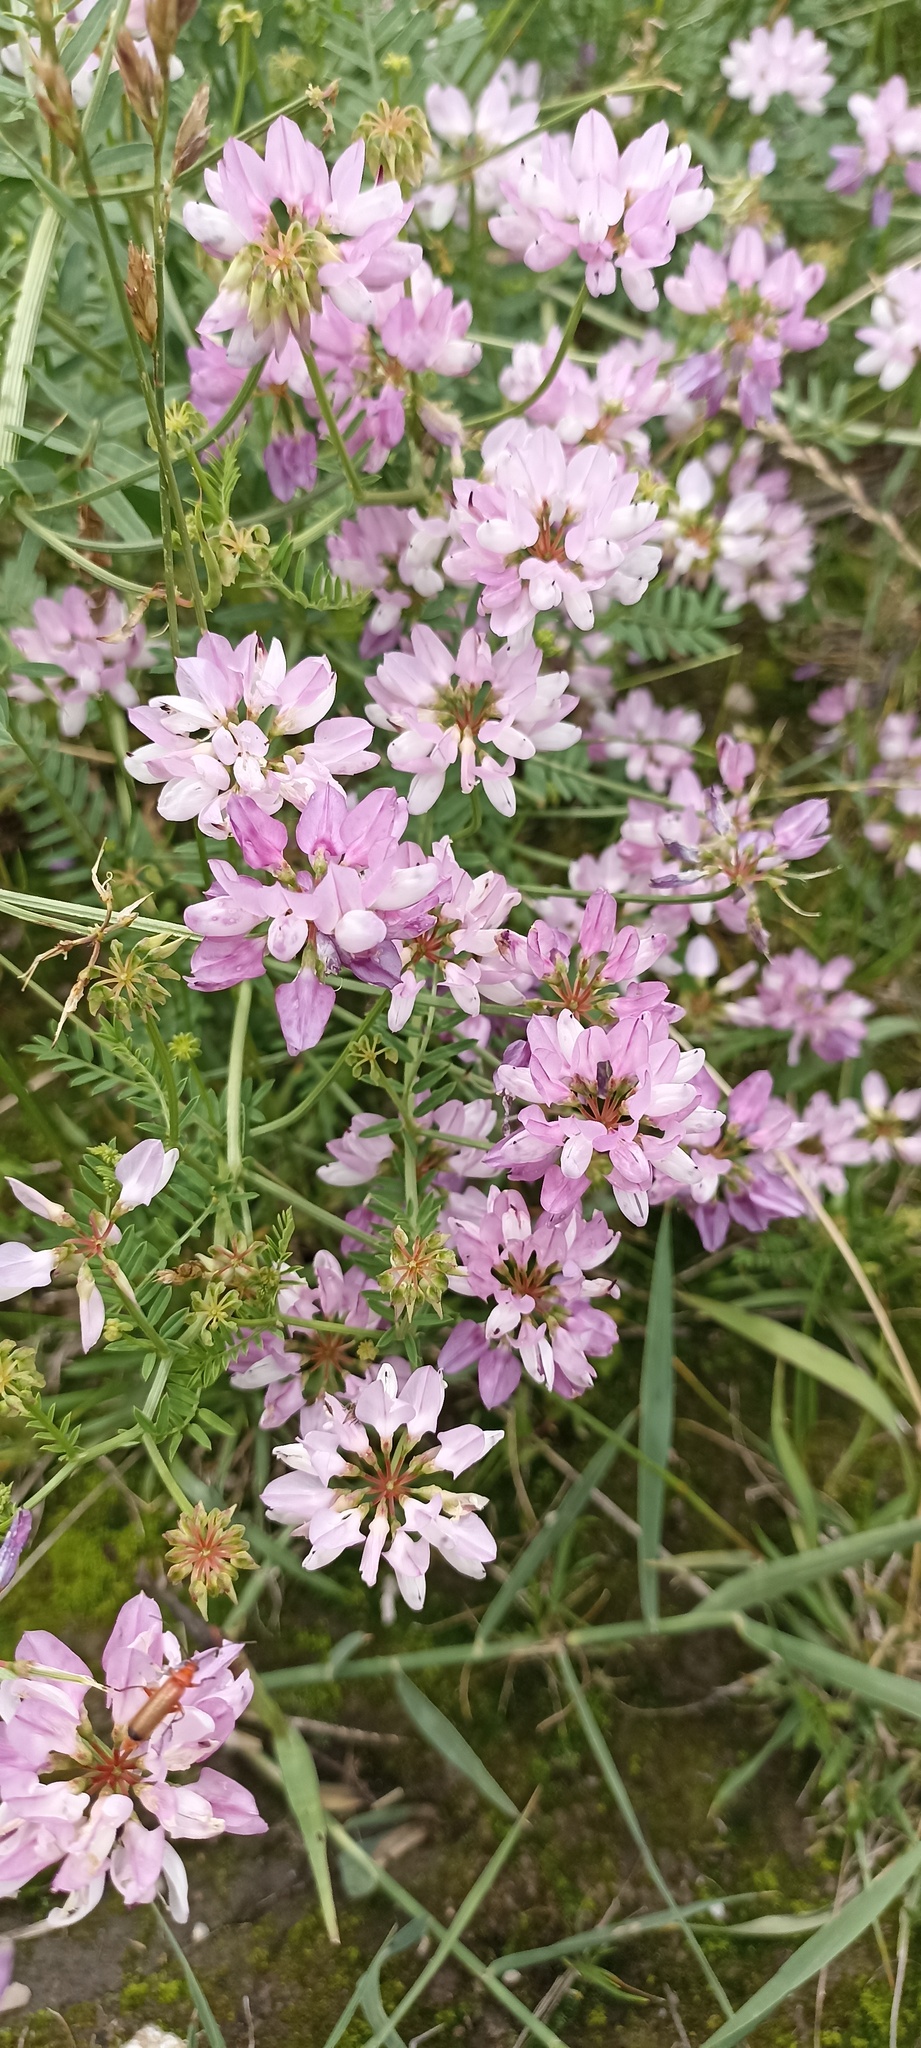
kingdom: Plantae
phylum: Tracheophyta
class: Magnoliopsida
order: Fabales
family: Fabaceae
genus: Coronilla
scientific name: Coronilla varia
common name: Crownvetch
